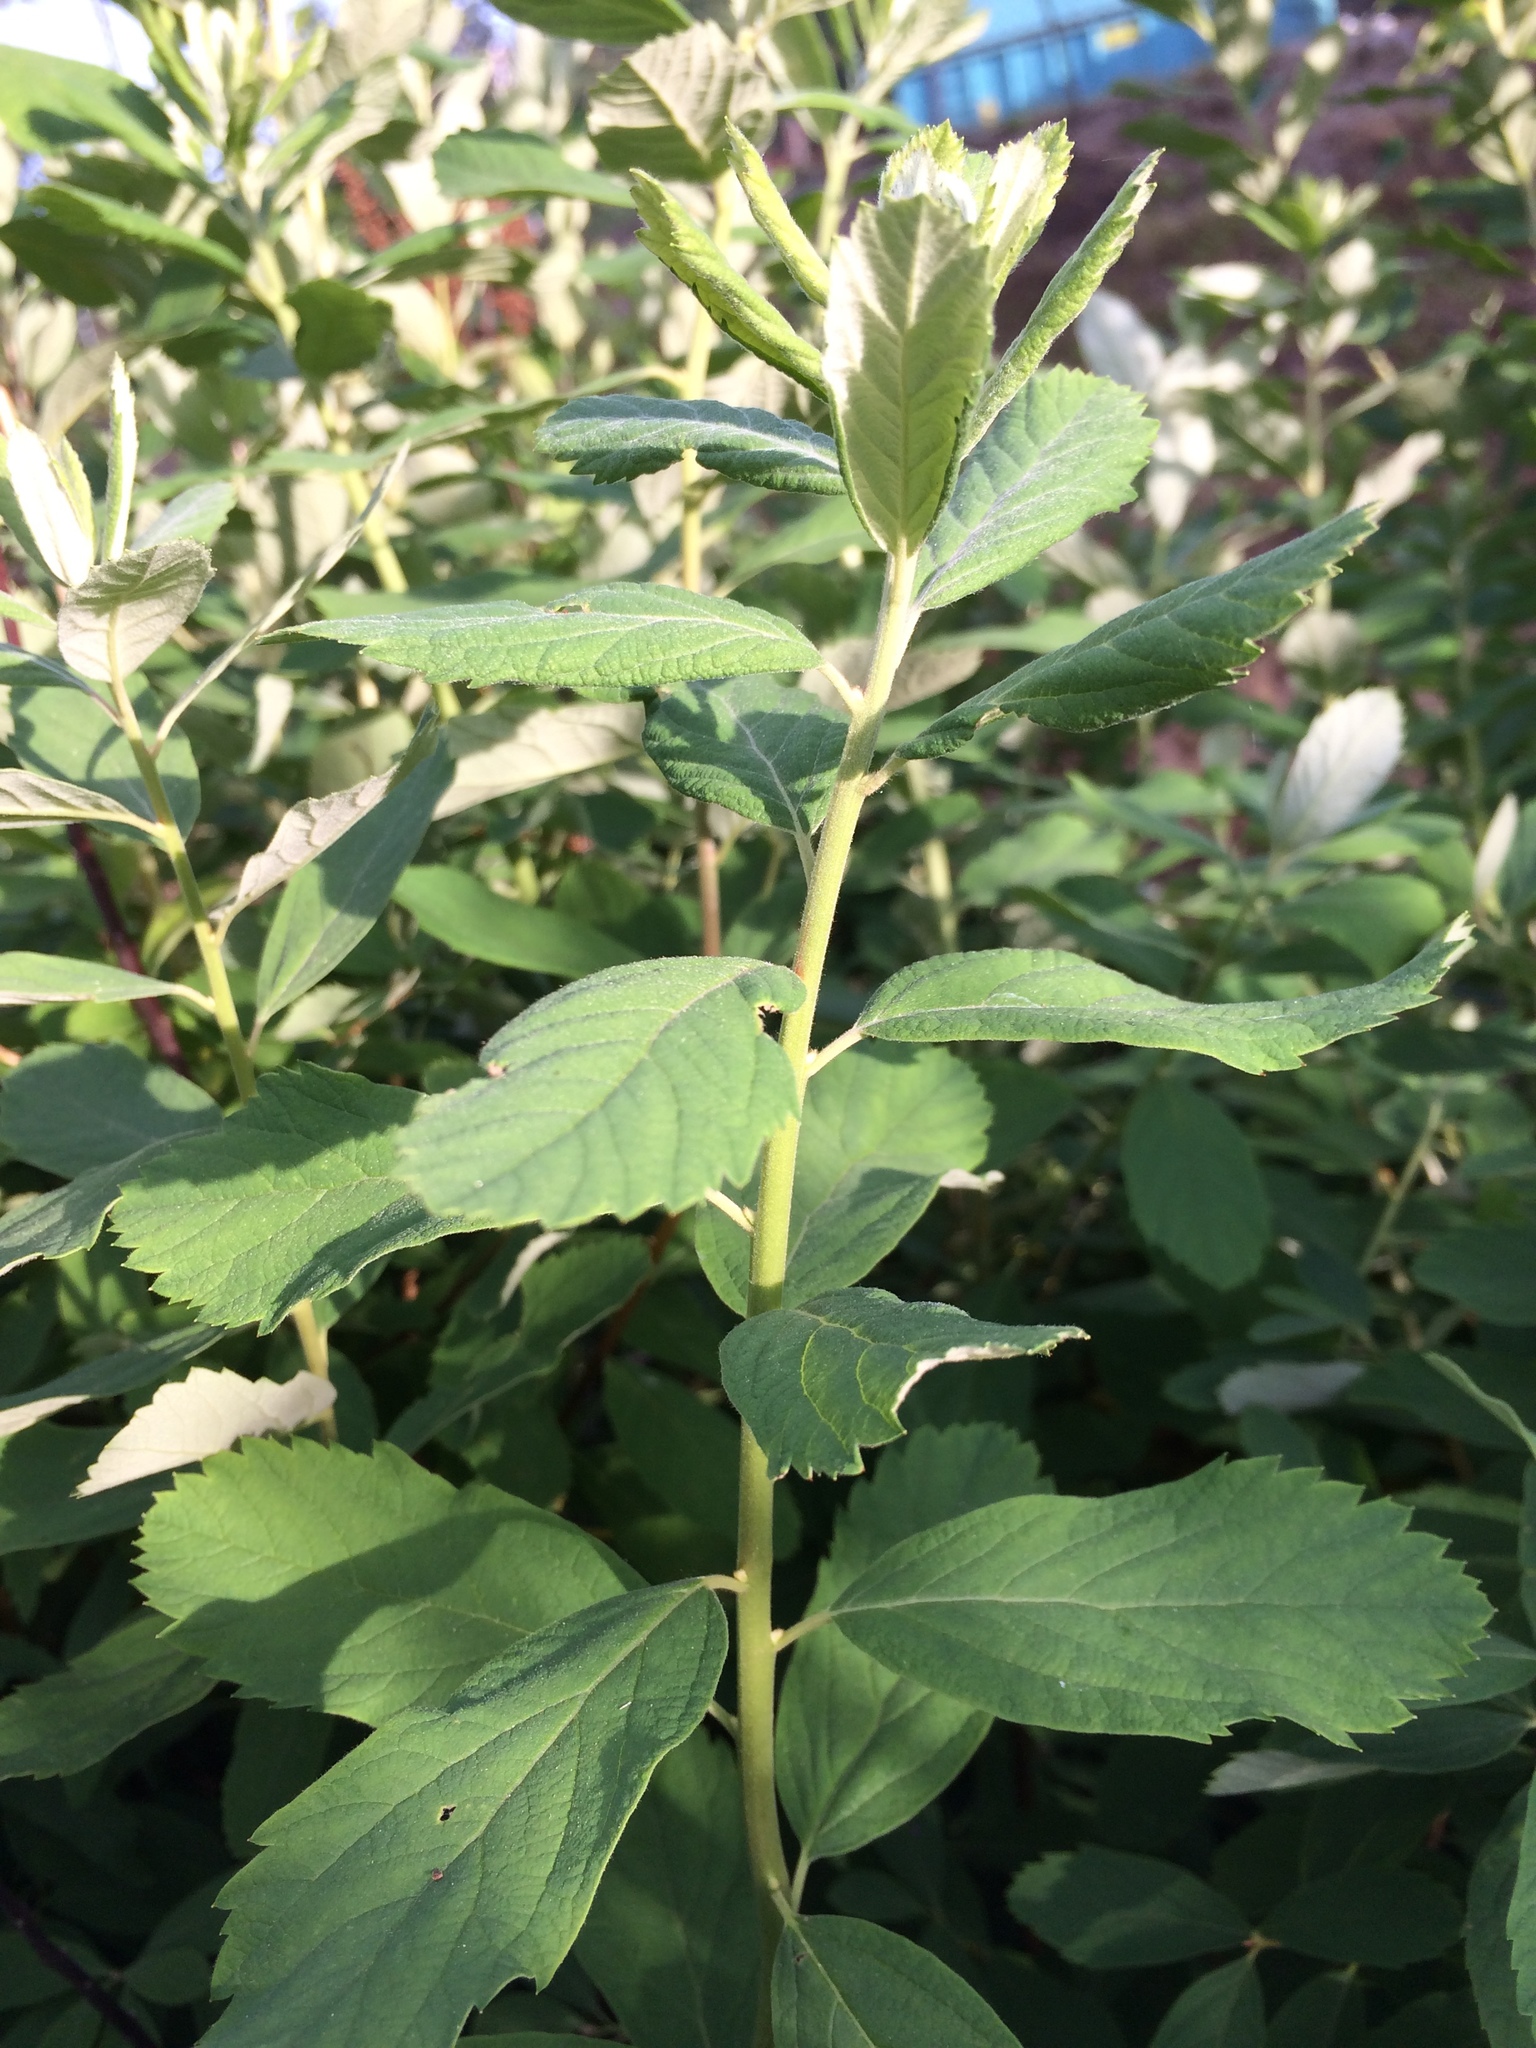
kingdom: Plantae
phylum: Tracheophyta
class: Magnoliopsida
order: Rosales
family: Rosaceae
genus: Spiraea
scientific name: Spiraea douglasii
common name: Steeplebush
